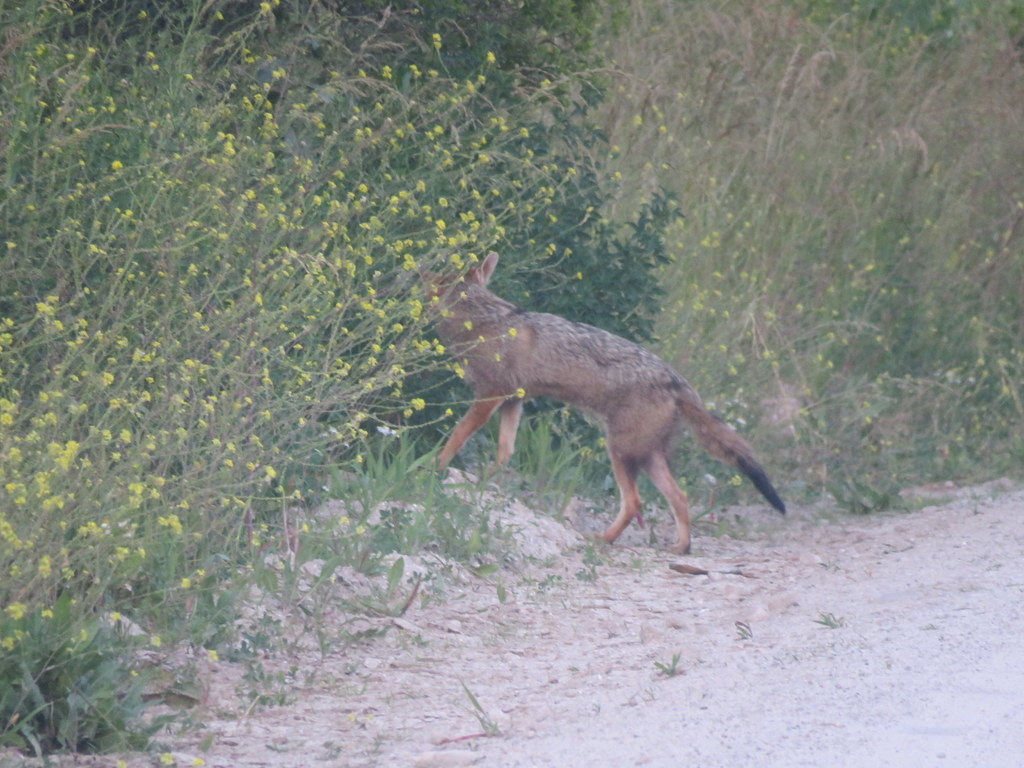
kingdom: Animalia
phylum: Chordata
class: Mammalia
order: Carnivora
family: Canidae
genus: Lycalopex
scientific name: Lycalopex gymnocercus
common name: Pampas fox
